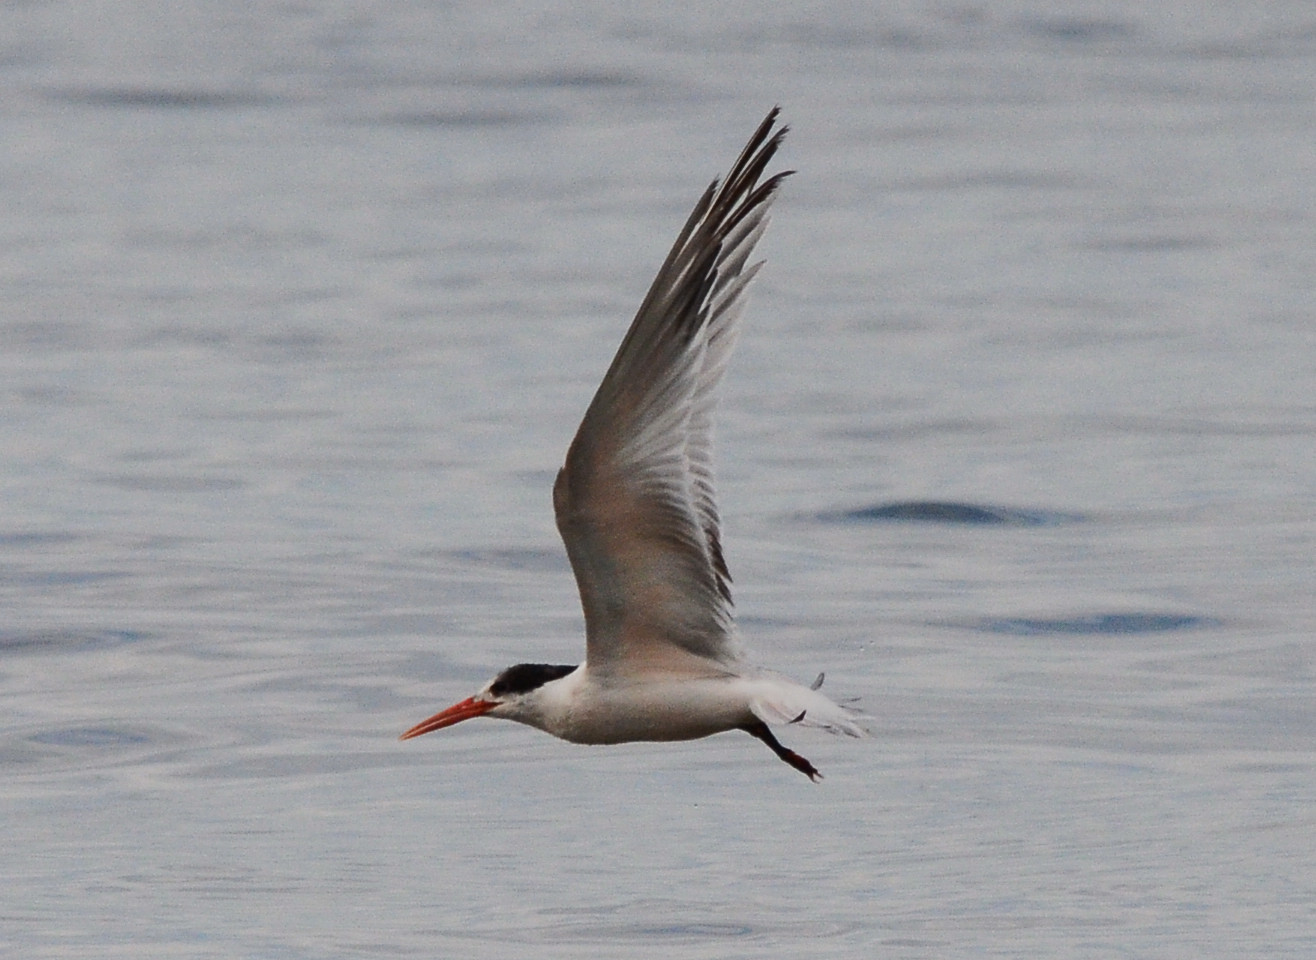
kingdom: Animalia
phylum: Chordata
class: Aves
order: Charadriiformes
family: Laridae
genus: Thalasseus
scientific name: Thalasseus elegans
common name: Elegant tern
